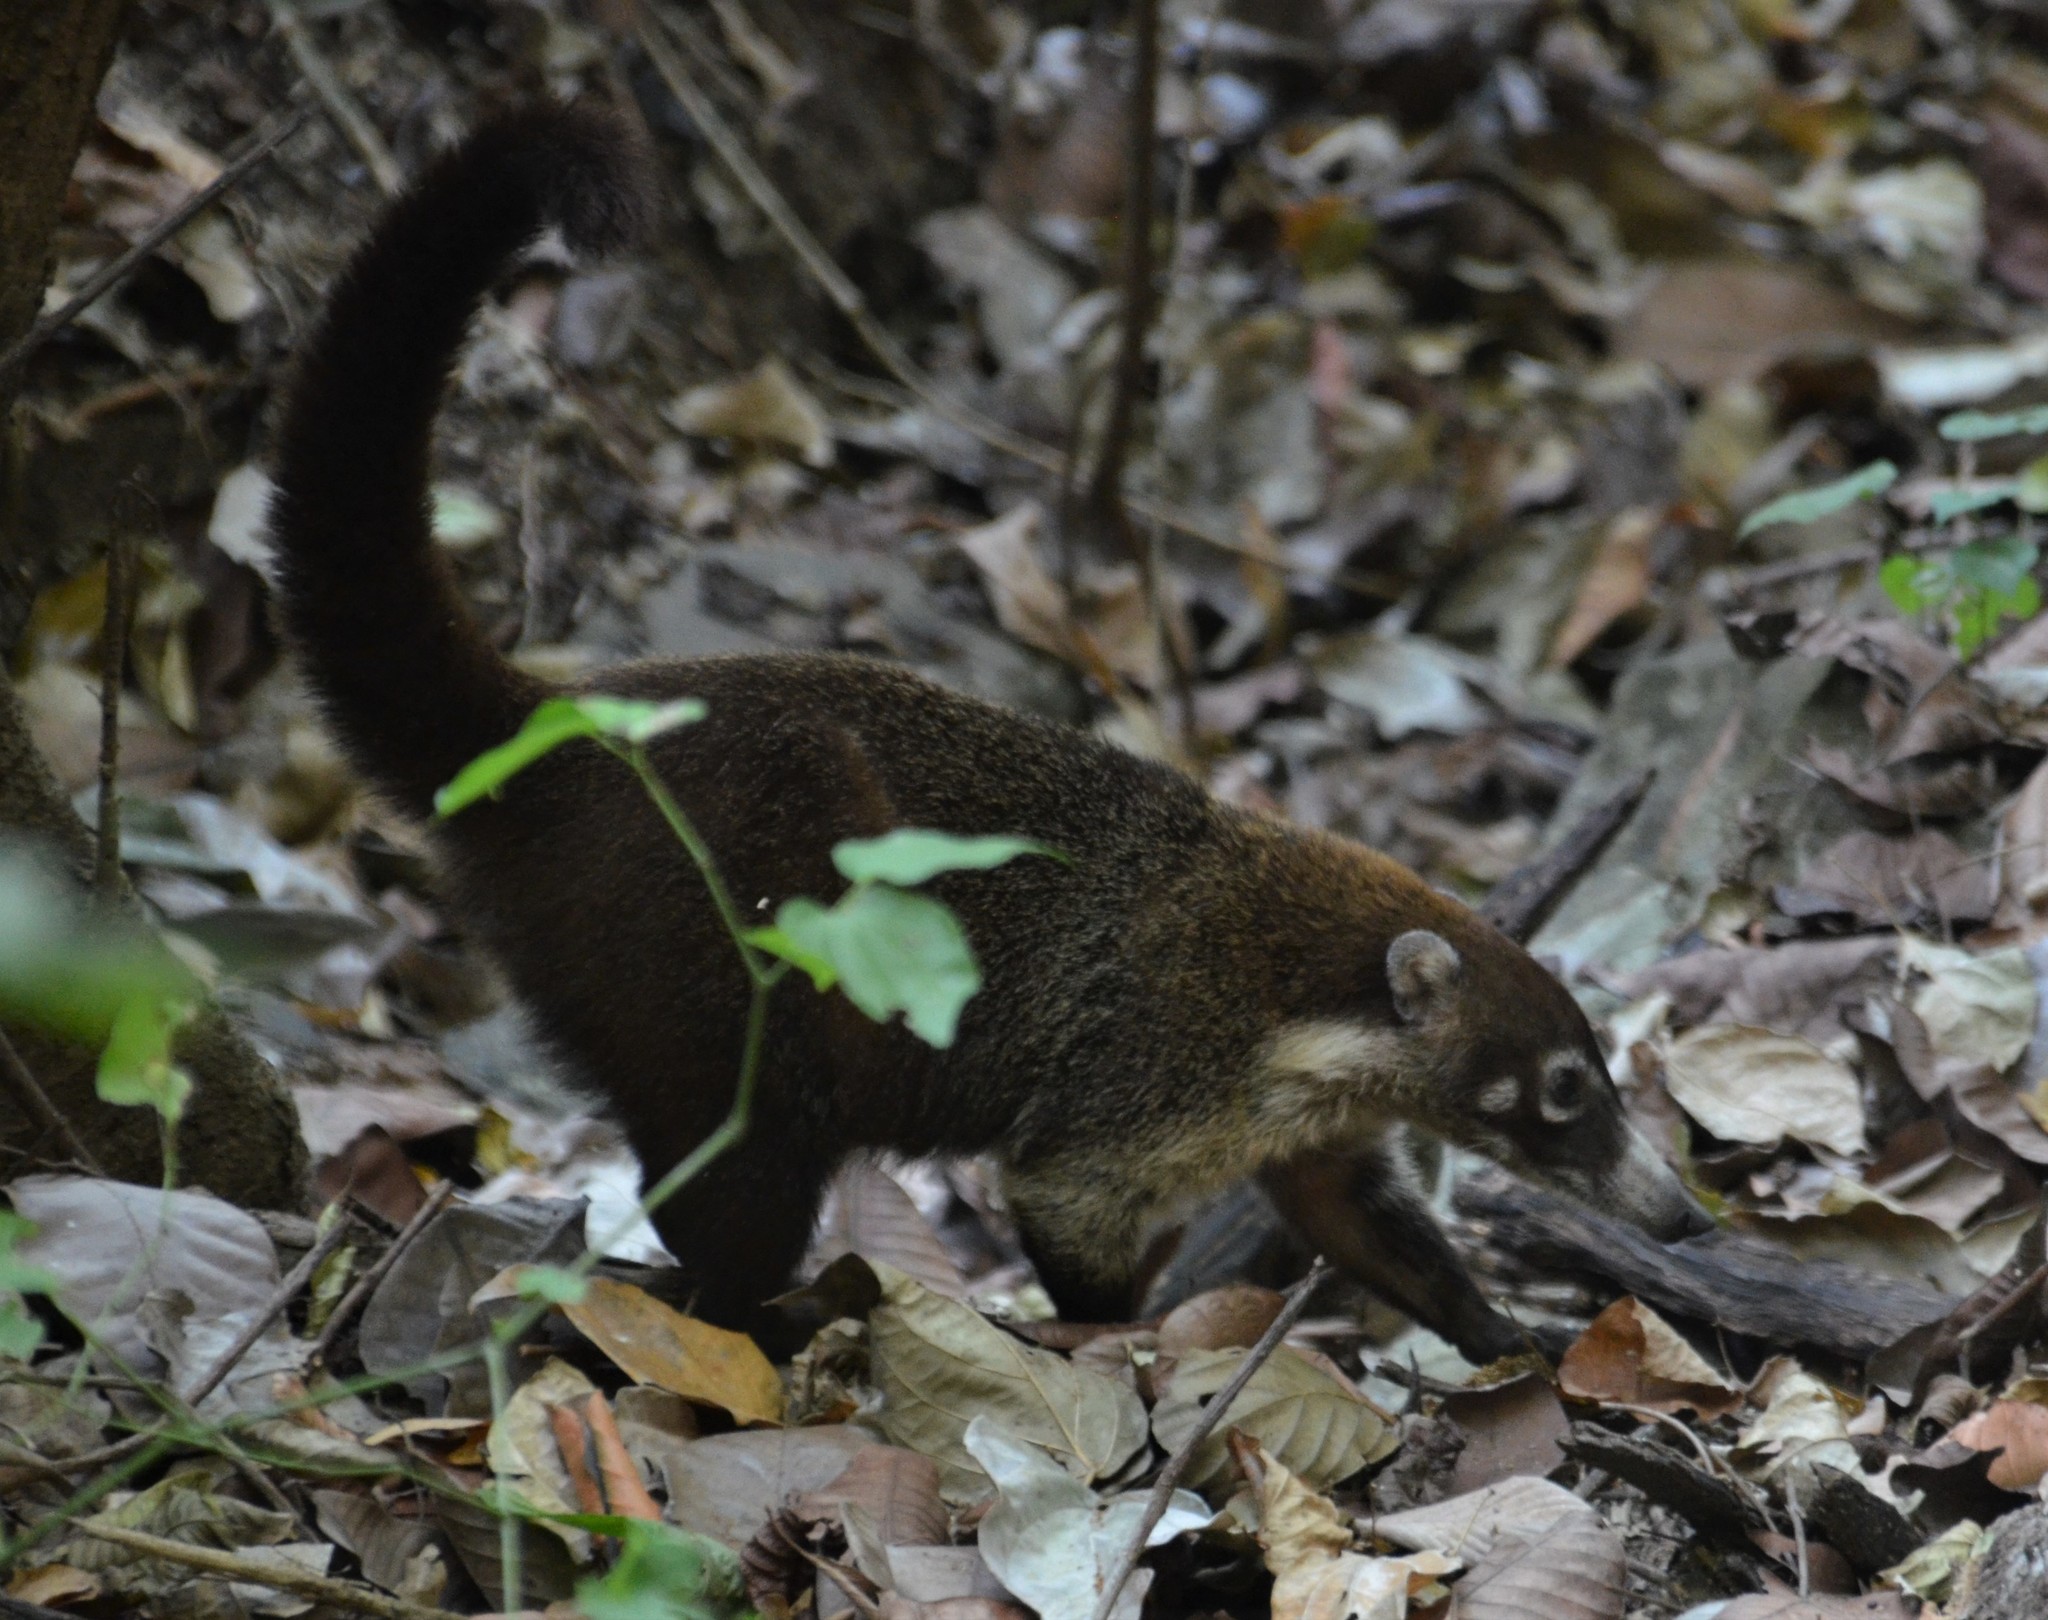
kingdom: Animalia
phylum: Chordata
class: Mammalia
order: Carnivora
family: Procyonidae
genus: Nasua
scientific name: Nasua narica
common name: White-nosed coati
